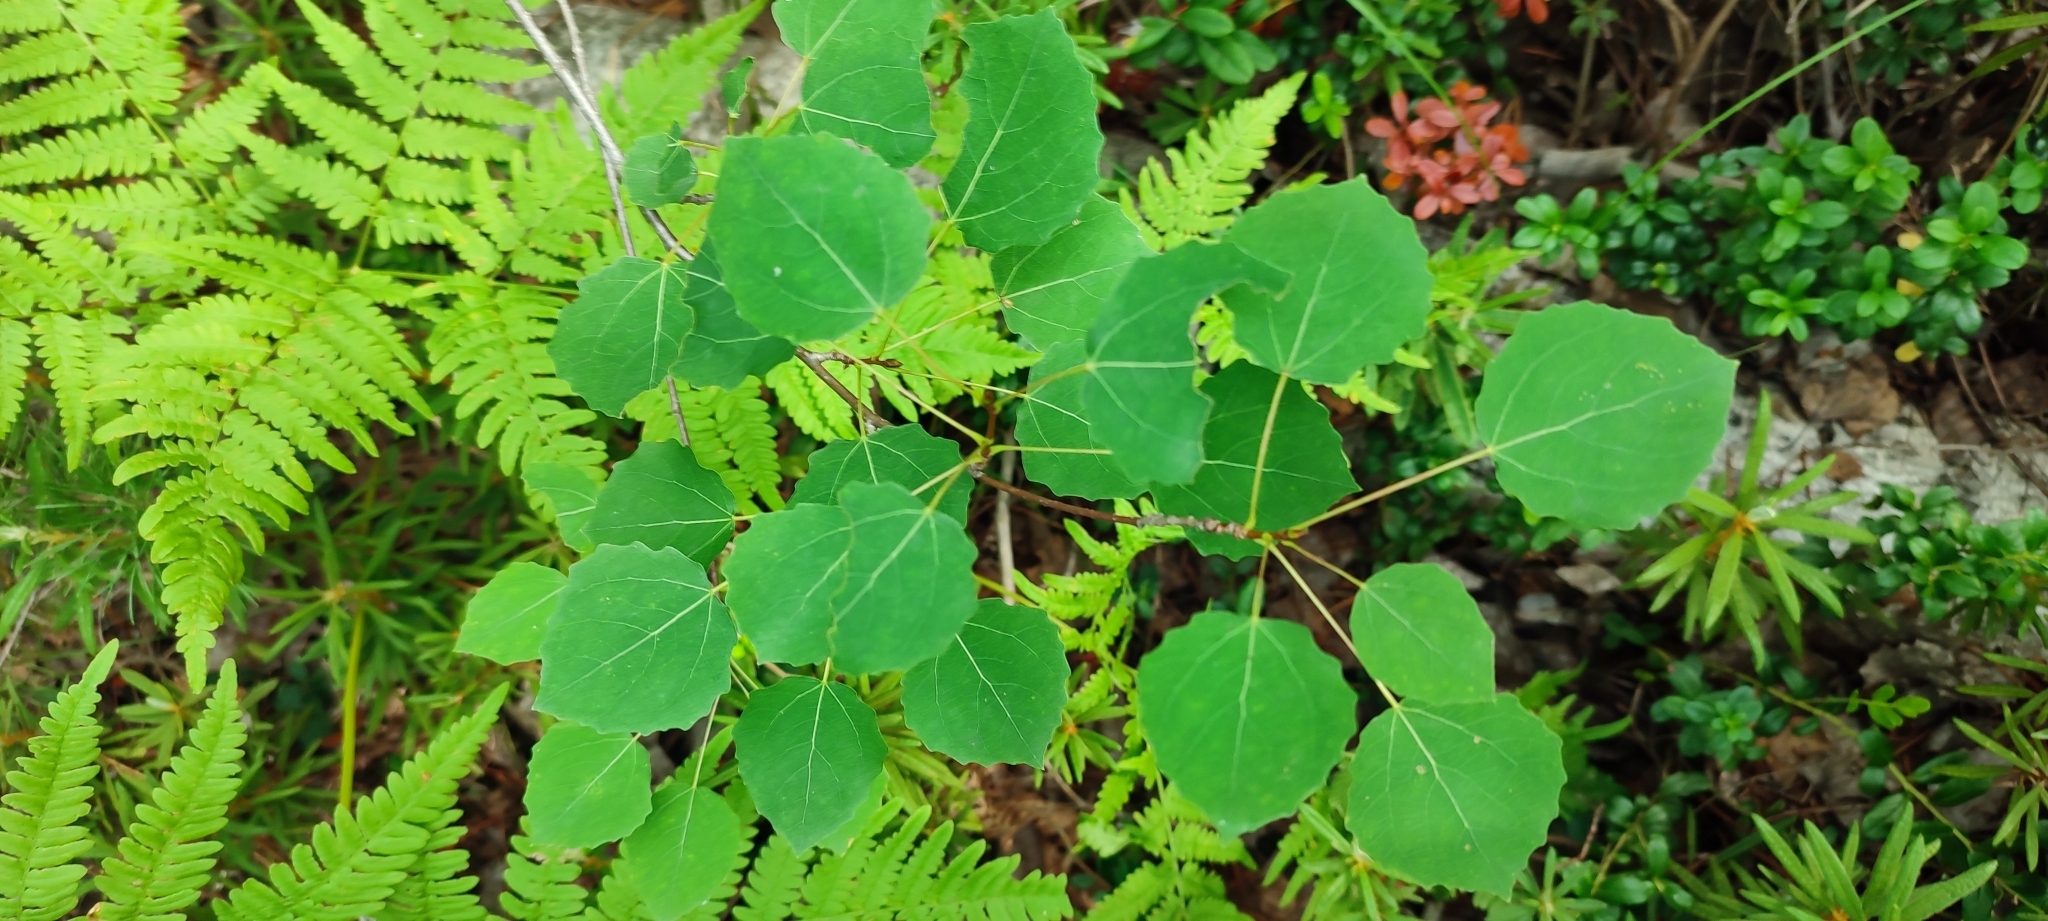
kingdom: Plantae
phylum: Tracheophyta
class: Magnoliopsida
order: Malpighiales
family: Salicaceae
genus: Populus
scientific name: Populus tremula
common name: European aspen
